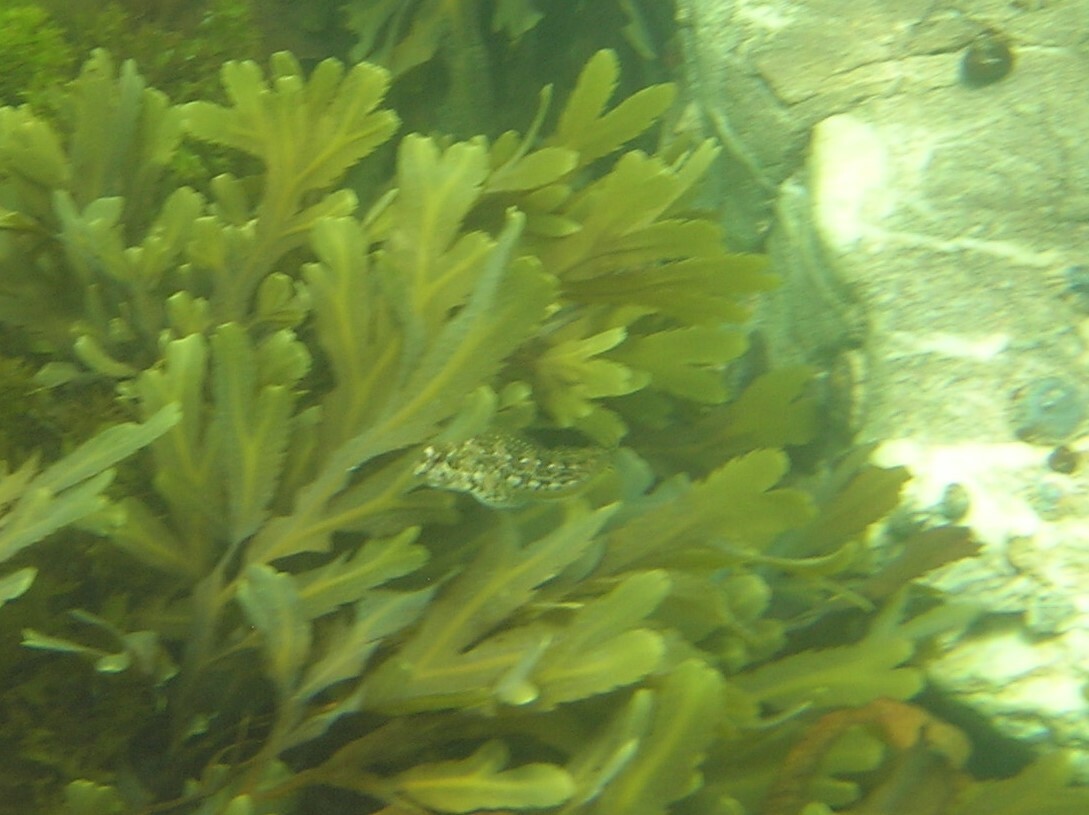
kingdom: Animalia
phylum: Chordata
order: Perciformes
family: Blenniidae
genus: Lipophrys
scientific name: Lipophrys pholis
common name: Shanny
